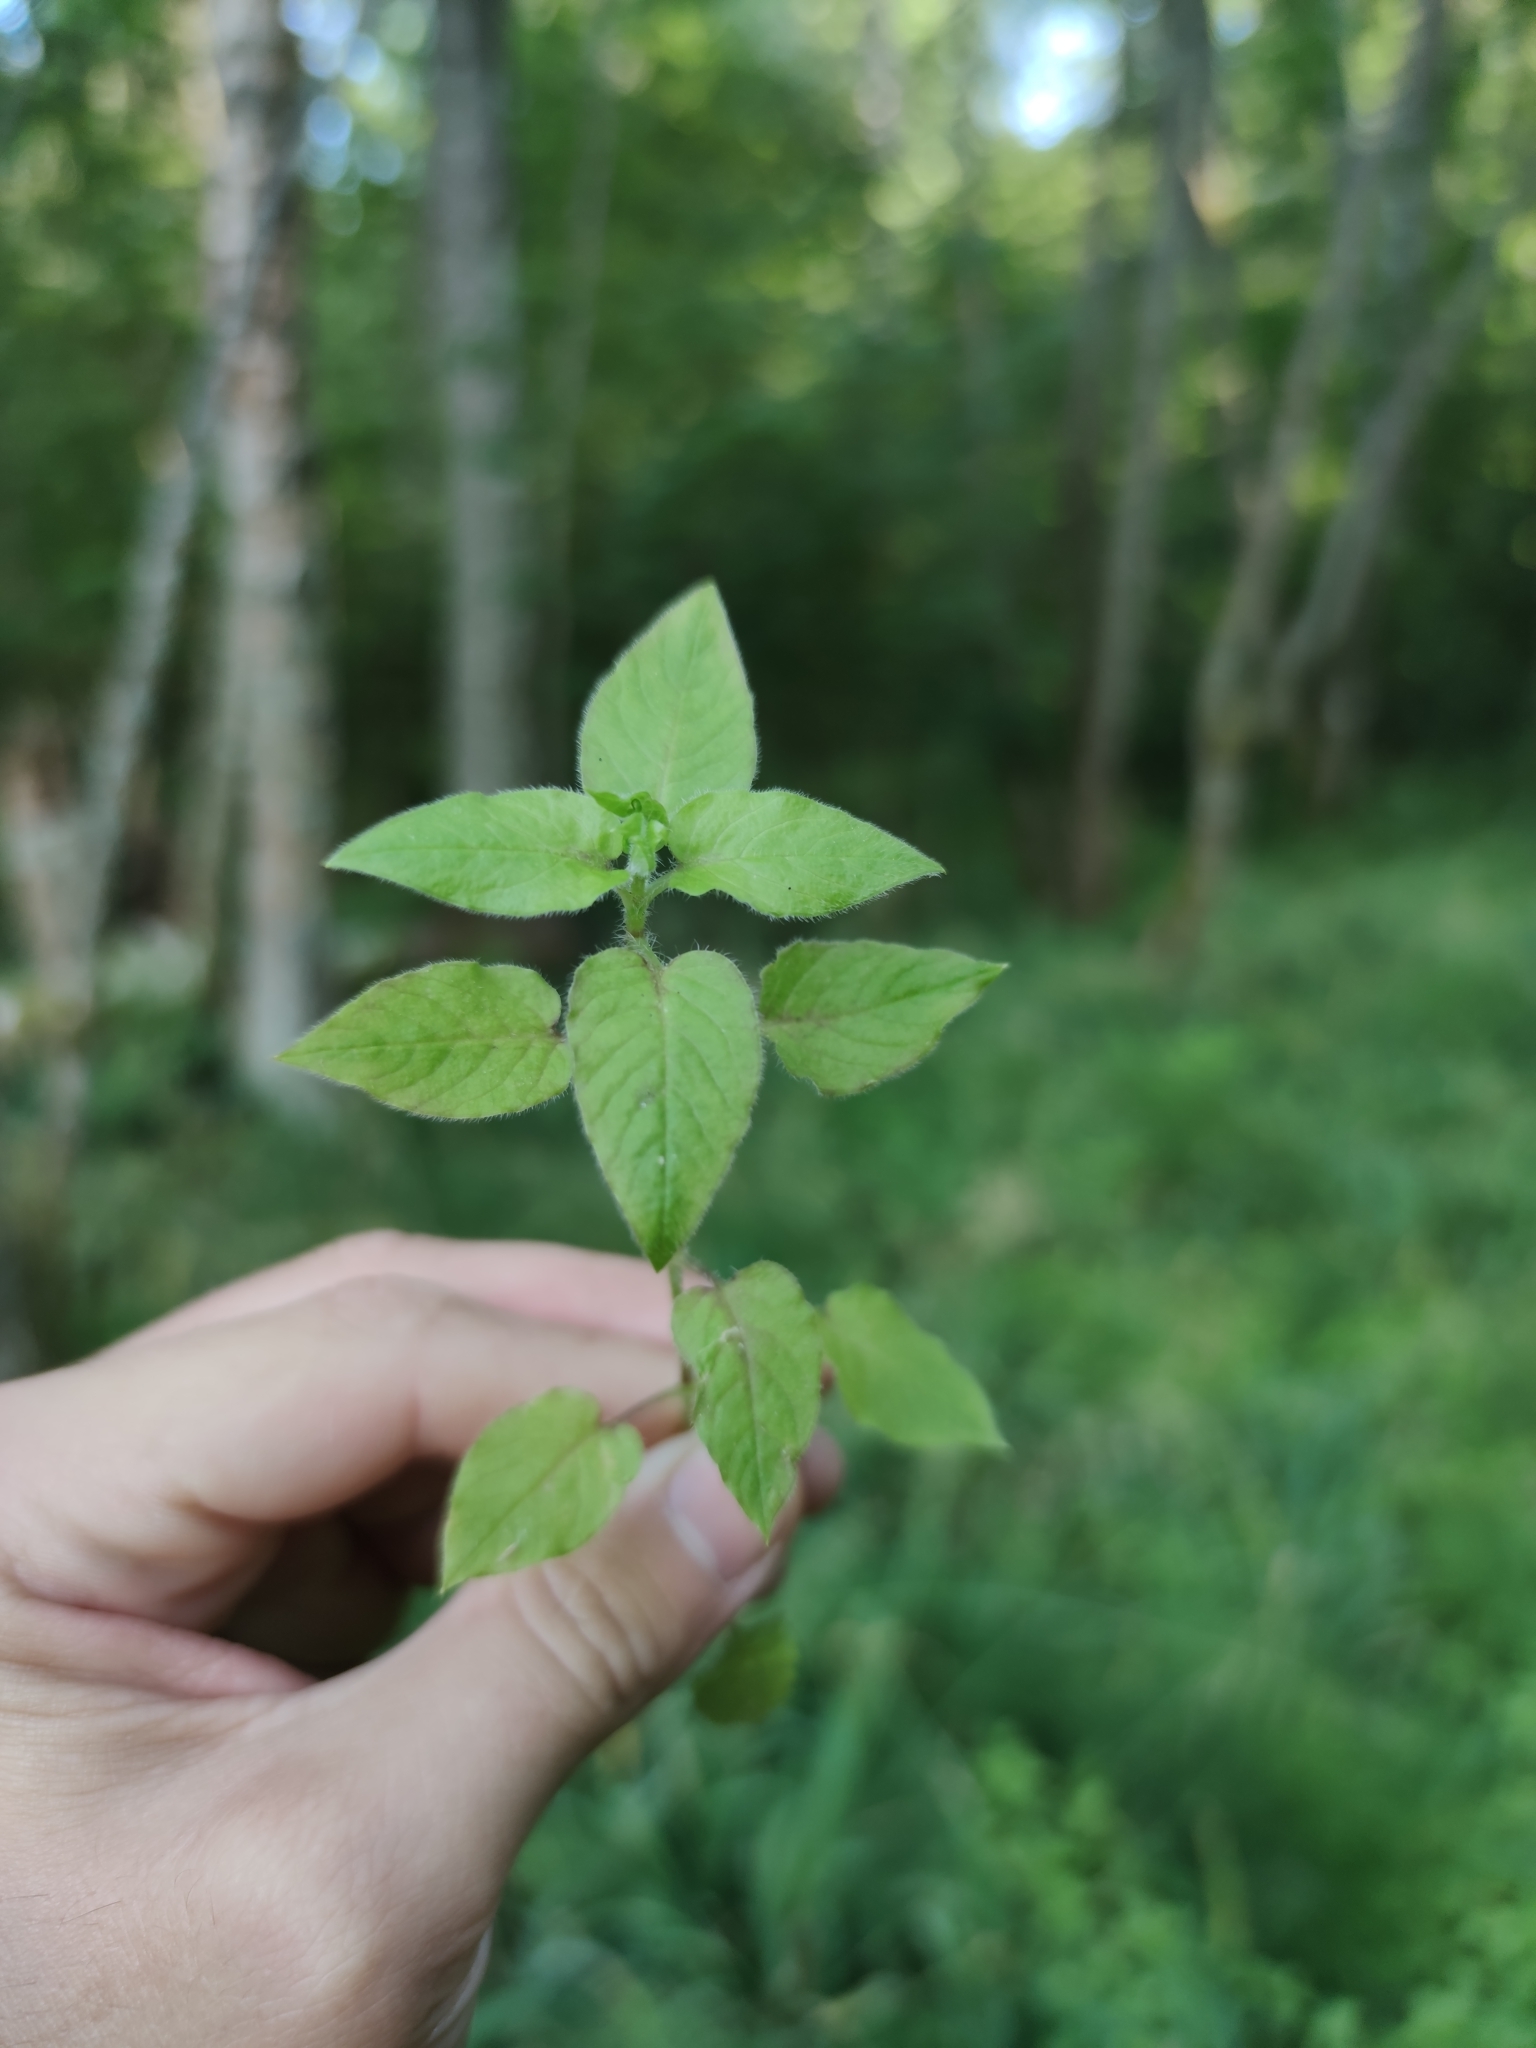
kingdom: Plantae
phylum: Tracheophyta
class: Magnoliopsida
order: Caryophyllales
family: Caryophyllaceae
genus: Stellaria
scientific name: Stellaria nemorum
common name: Wood stitchwort
